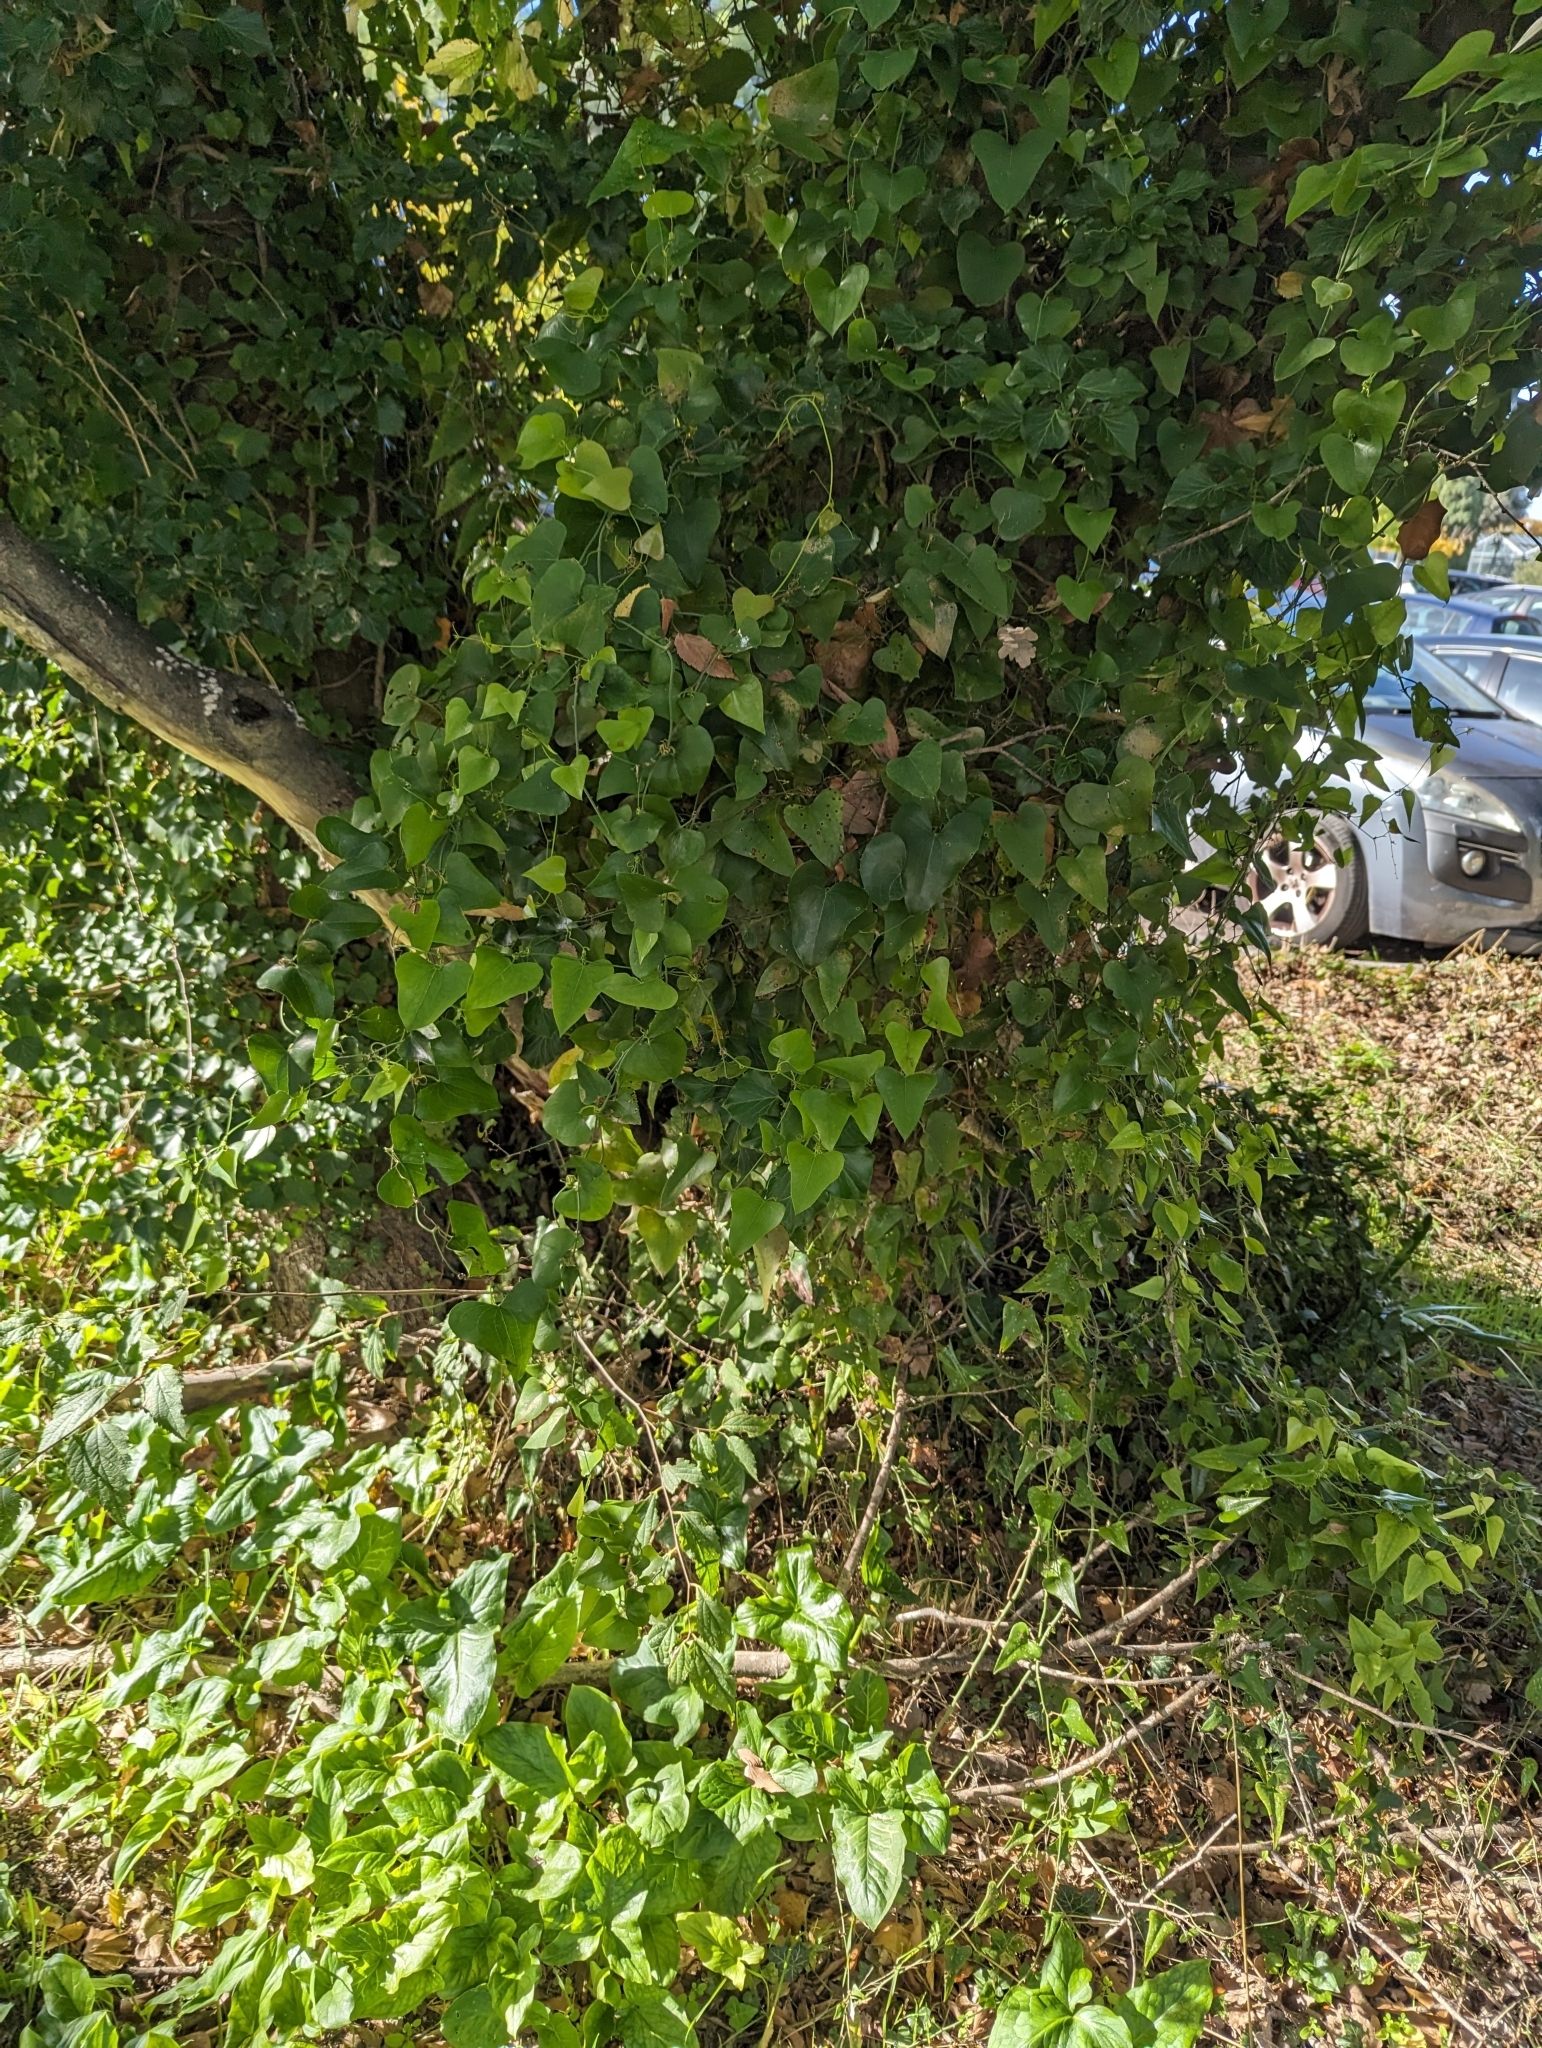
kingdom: Plantae
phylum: Tracheophyta
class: Liliopsida
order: Liliales
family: Smilacaceae
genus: Smilax
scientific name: Smilax aspera
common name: Common smilax
